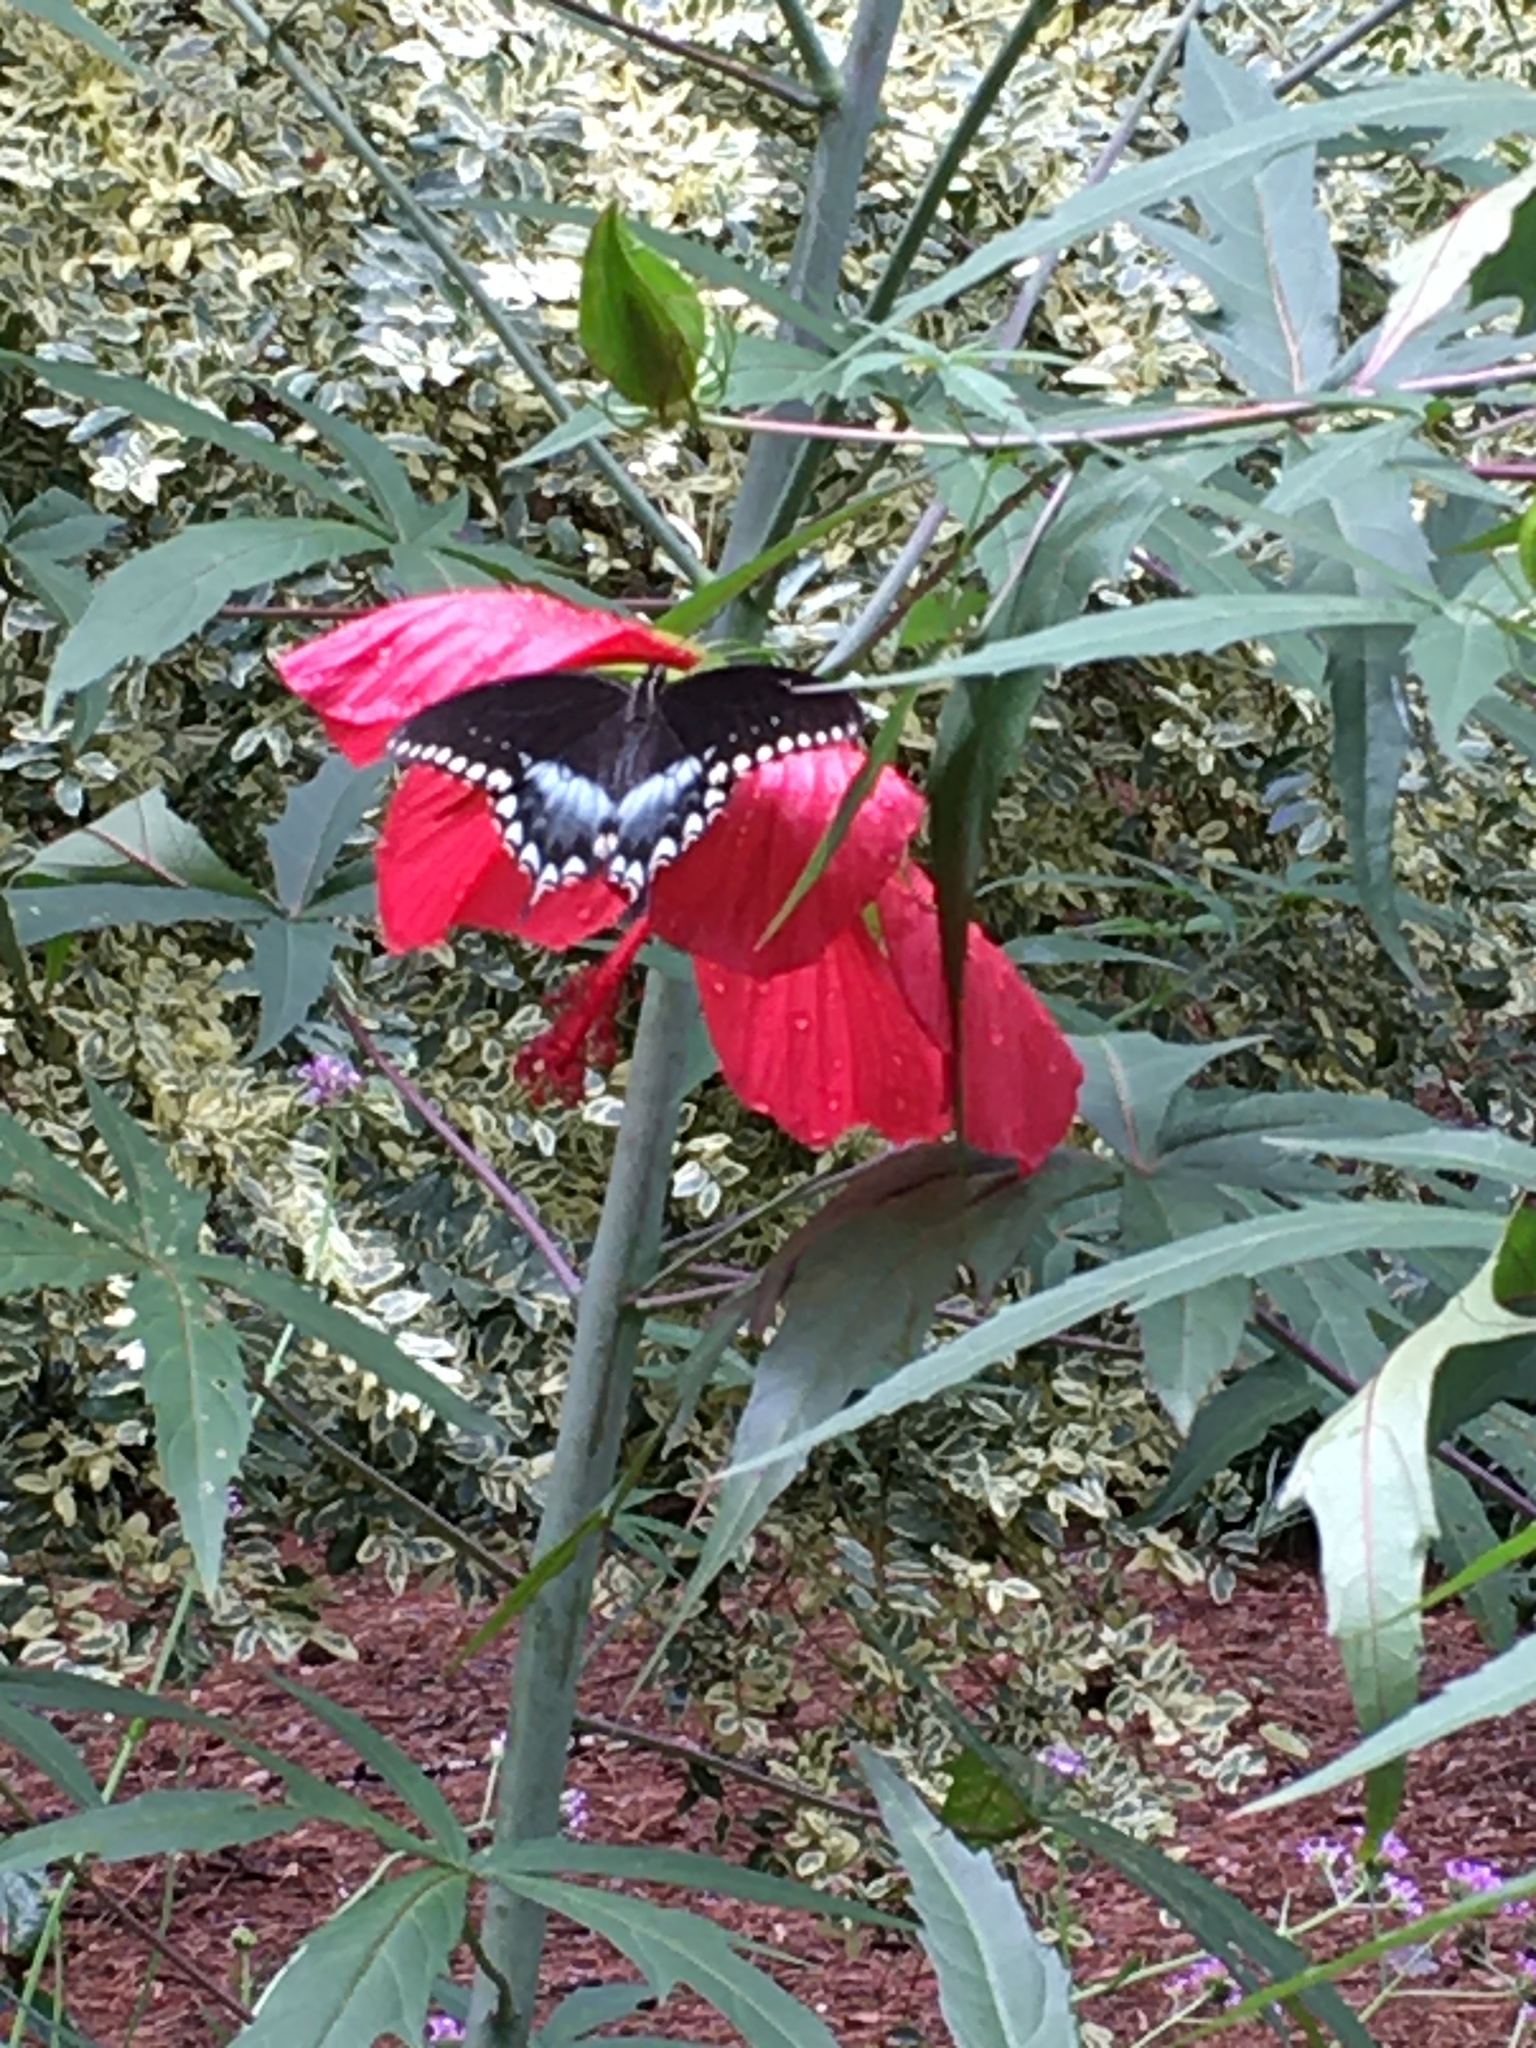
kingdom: Animalia
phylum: Arthropoda
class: Insecta
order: Lepidoptera
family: Papilionidae
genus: Papilio
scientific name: Papilio troilus
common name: Spicebush swallowtail
